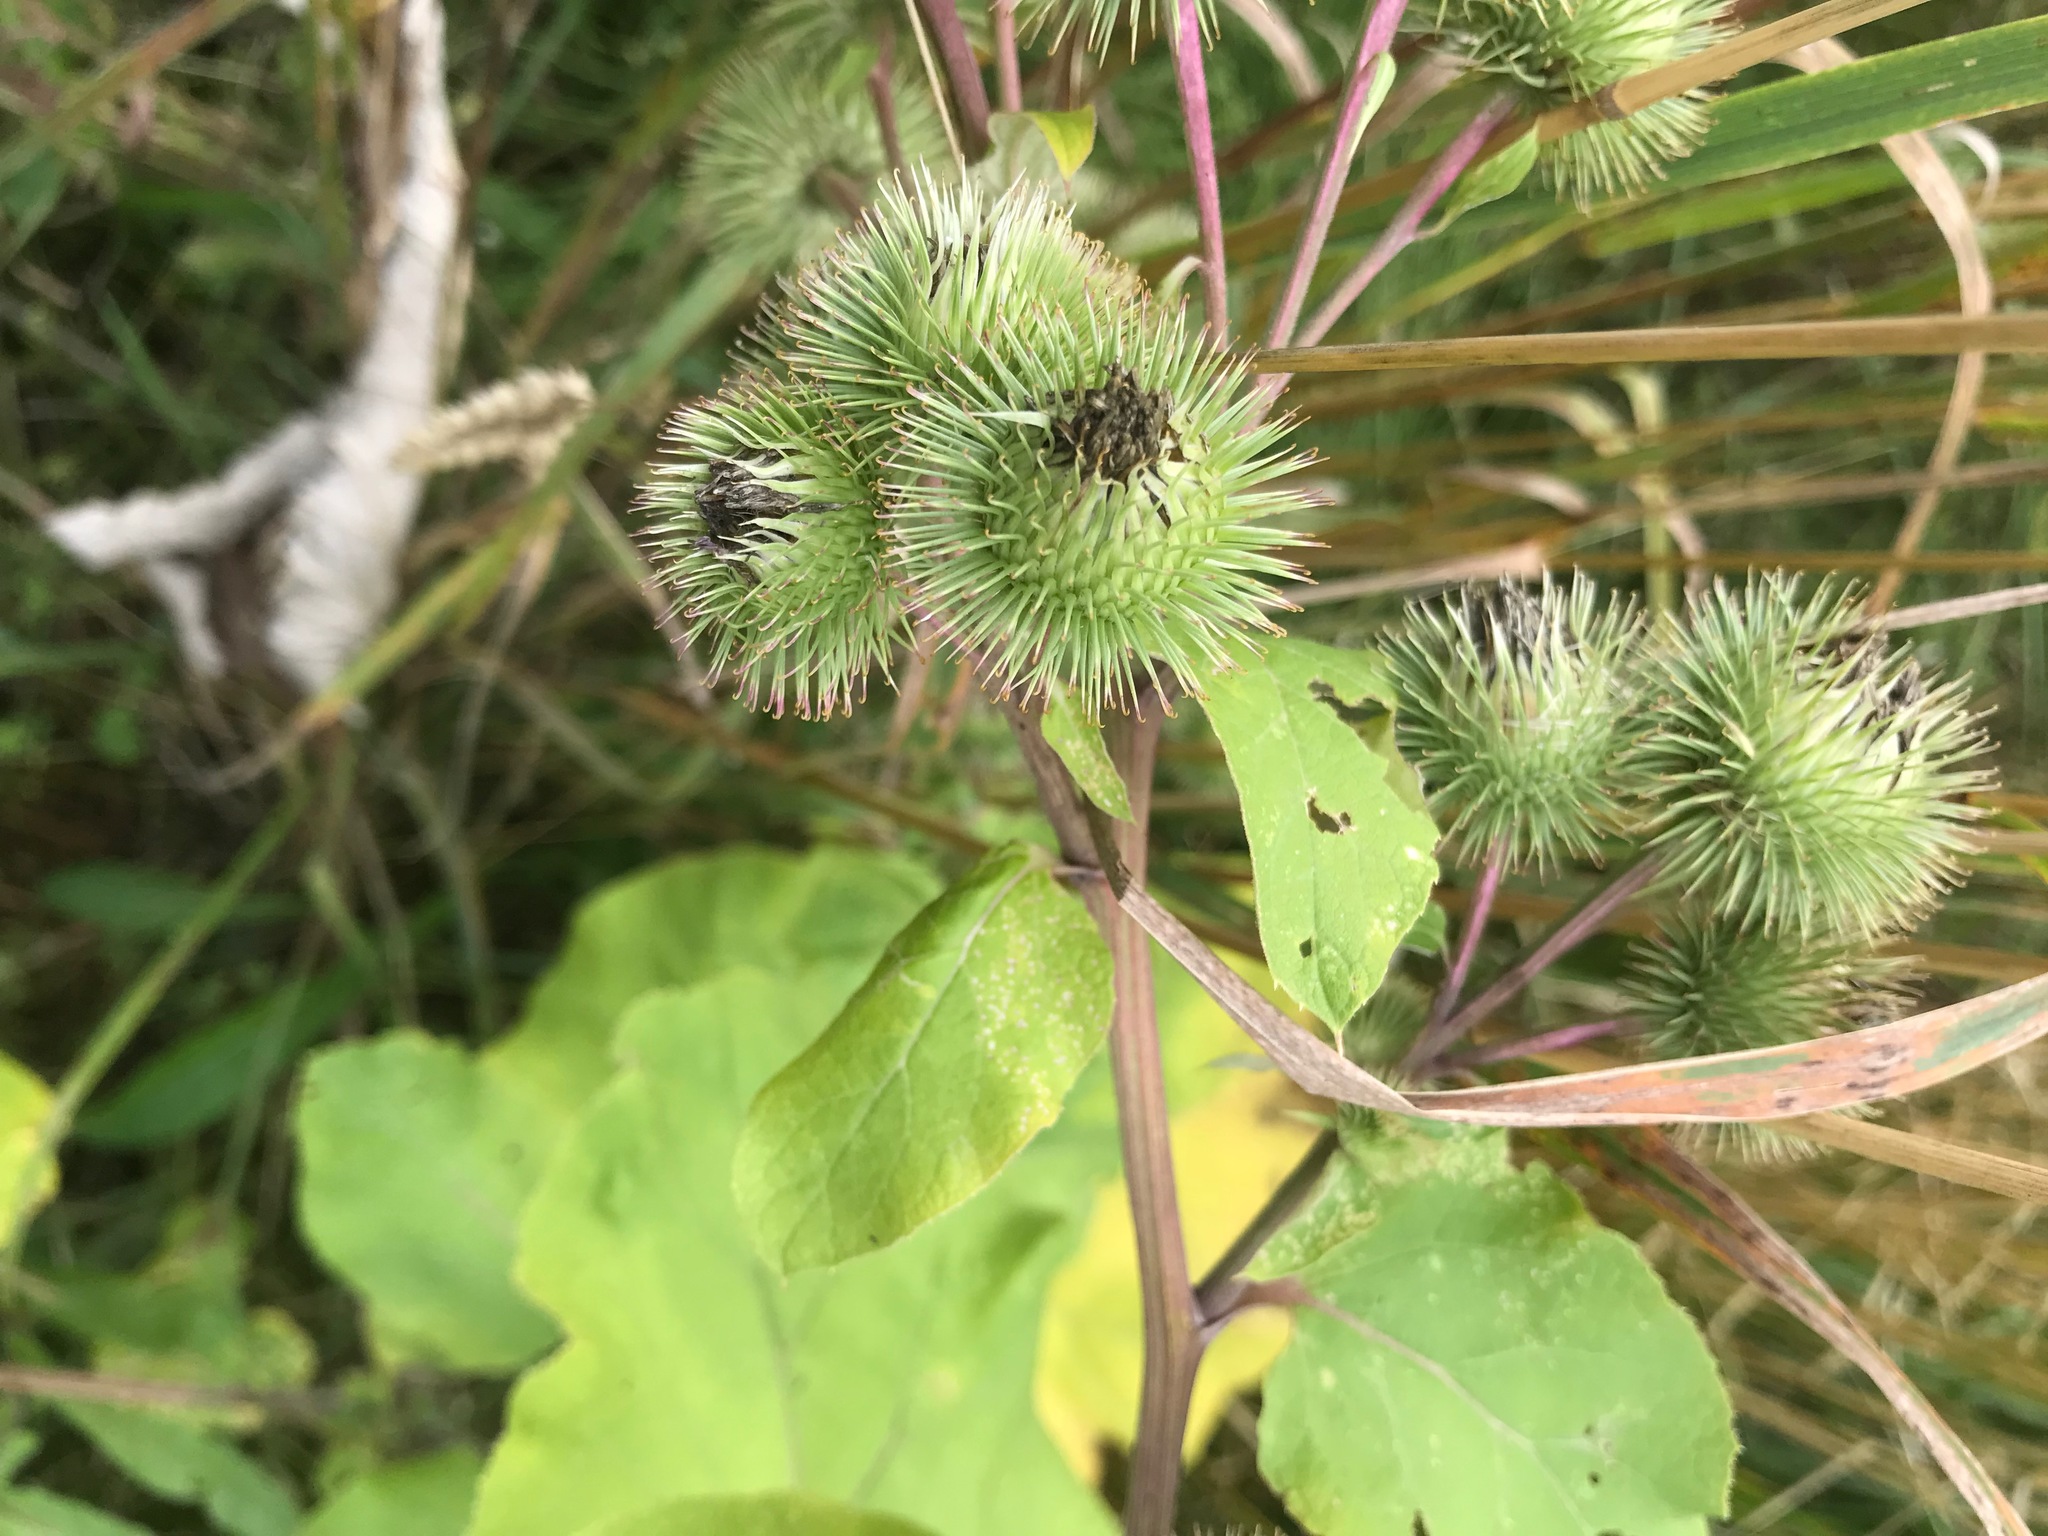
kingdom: Plantae
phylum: Tracheophyta
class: Magnoliopsida
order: Asterales
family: Asteraceae
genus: Arctium
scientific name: Arctium minus
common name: Lesser burdock
